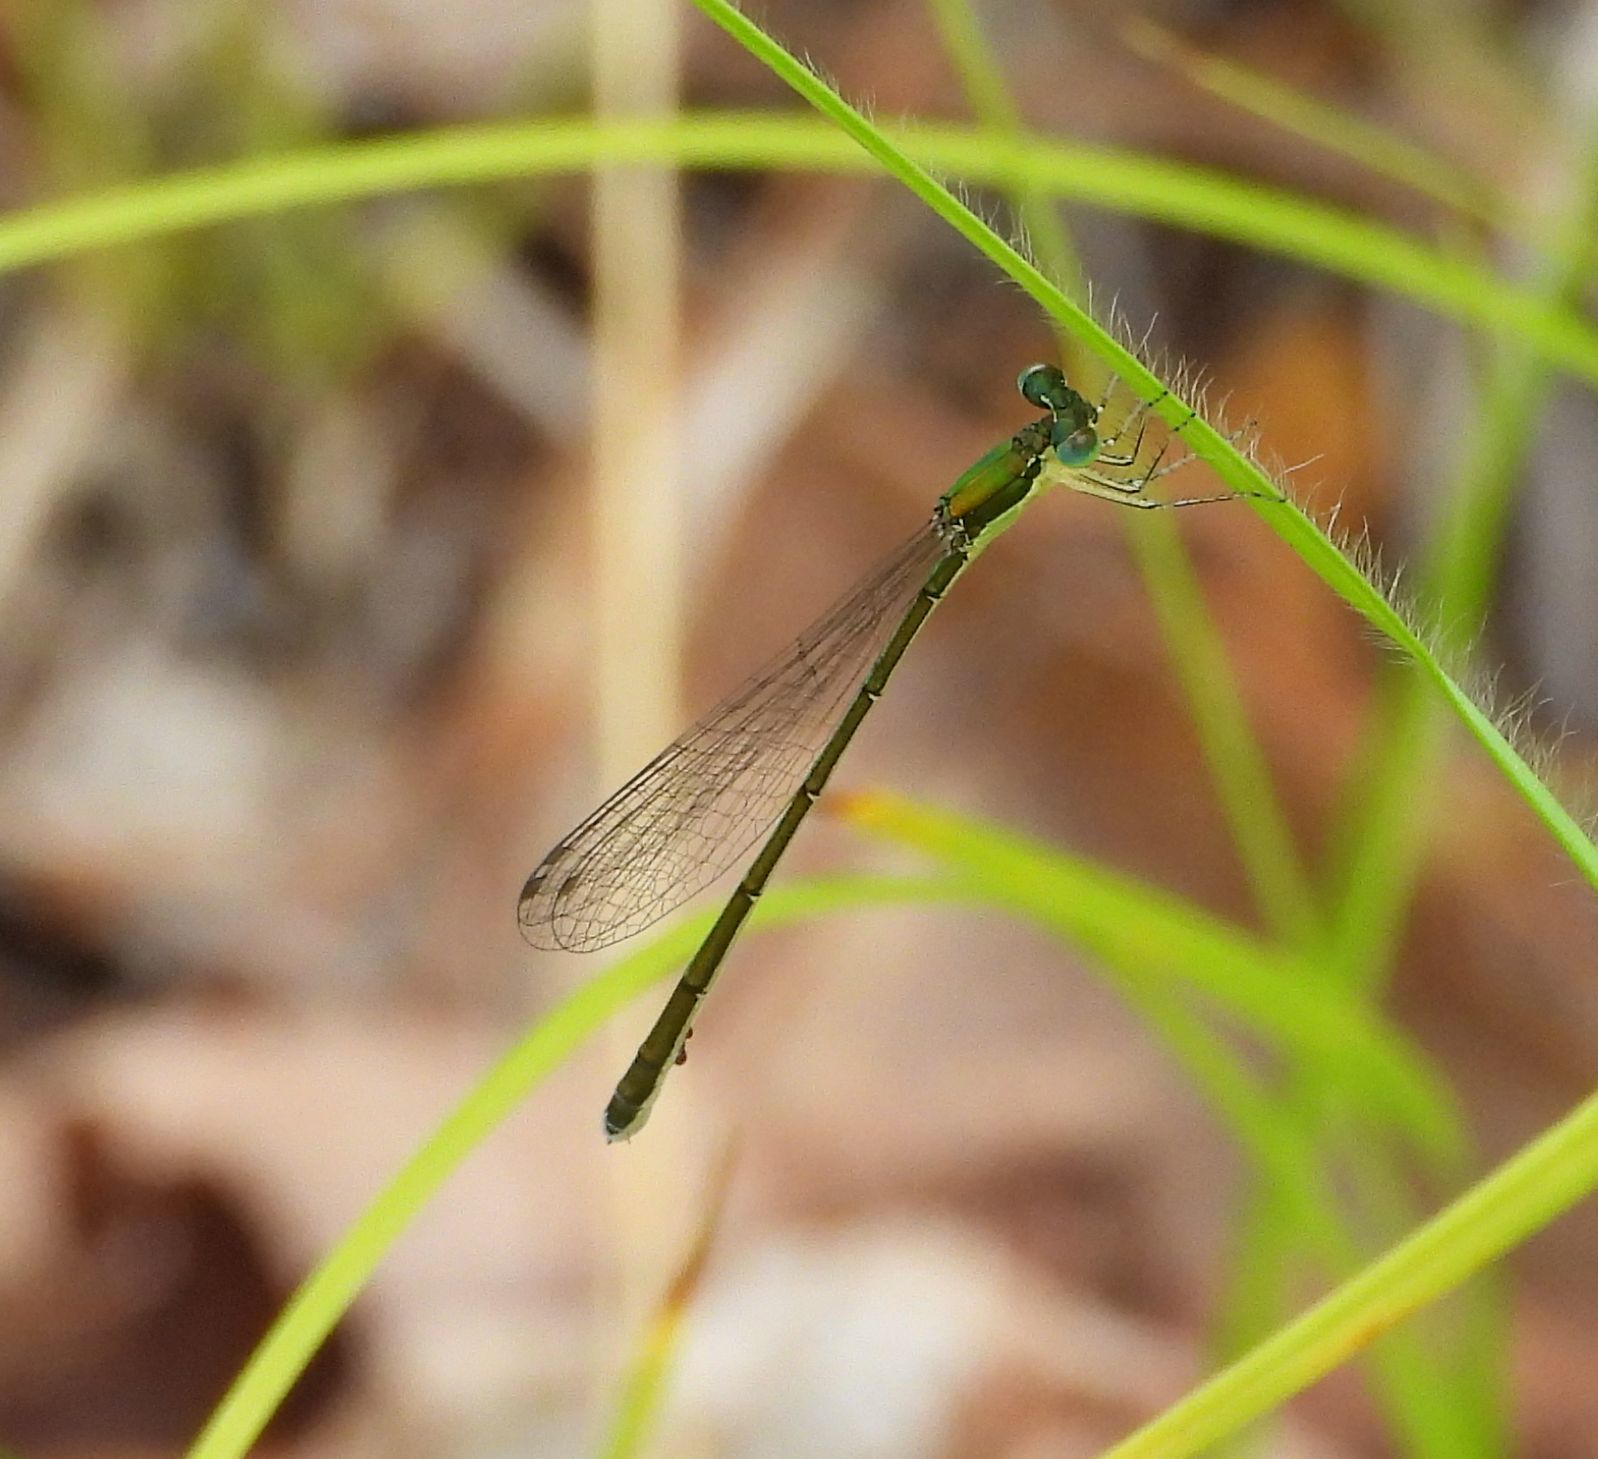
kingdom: Animalia
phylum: Arthropoda
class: Insecta
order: Odonata
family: Coenagrionidae
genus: Nehalennia
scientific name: Nehalennia irene
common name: Sedge sprite
